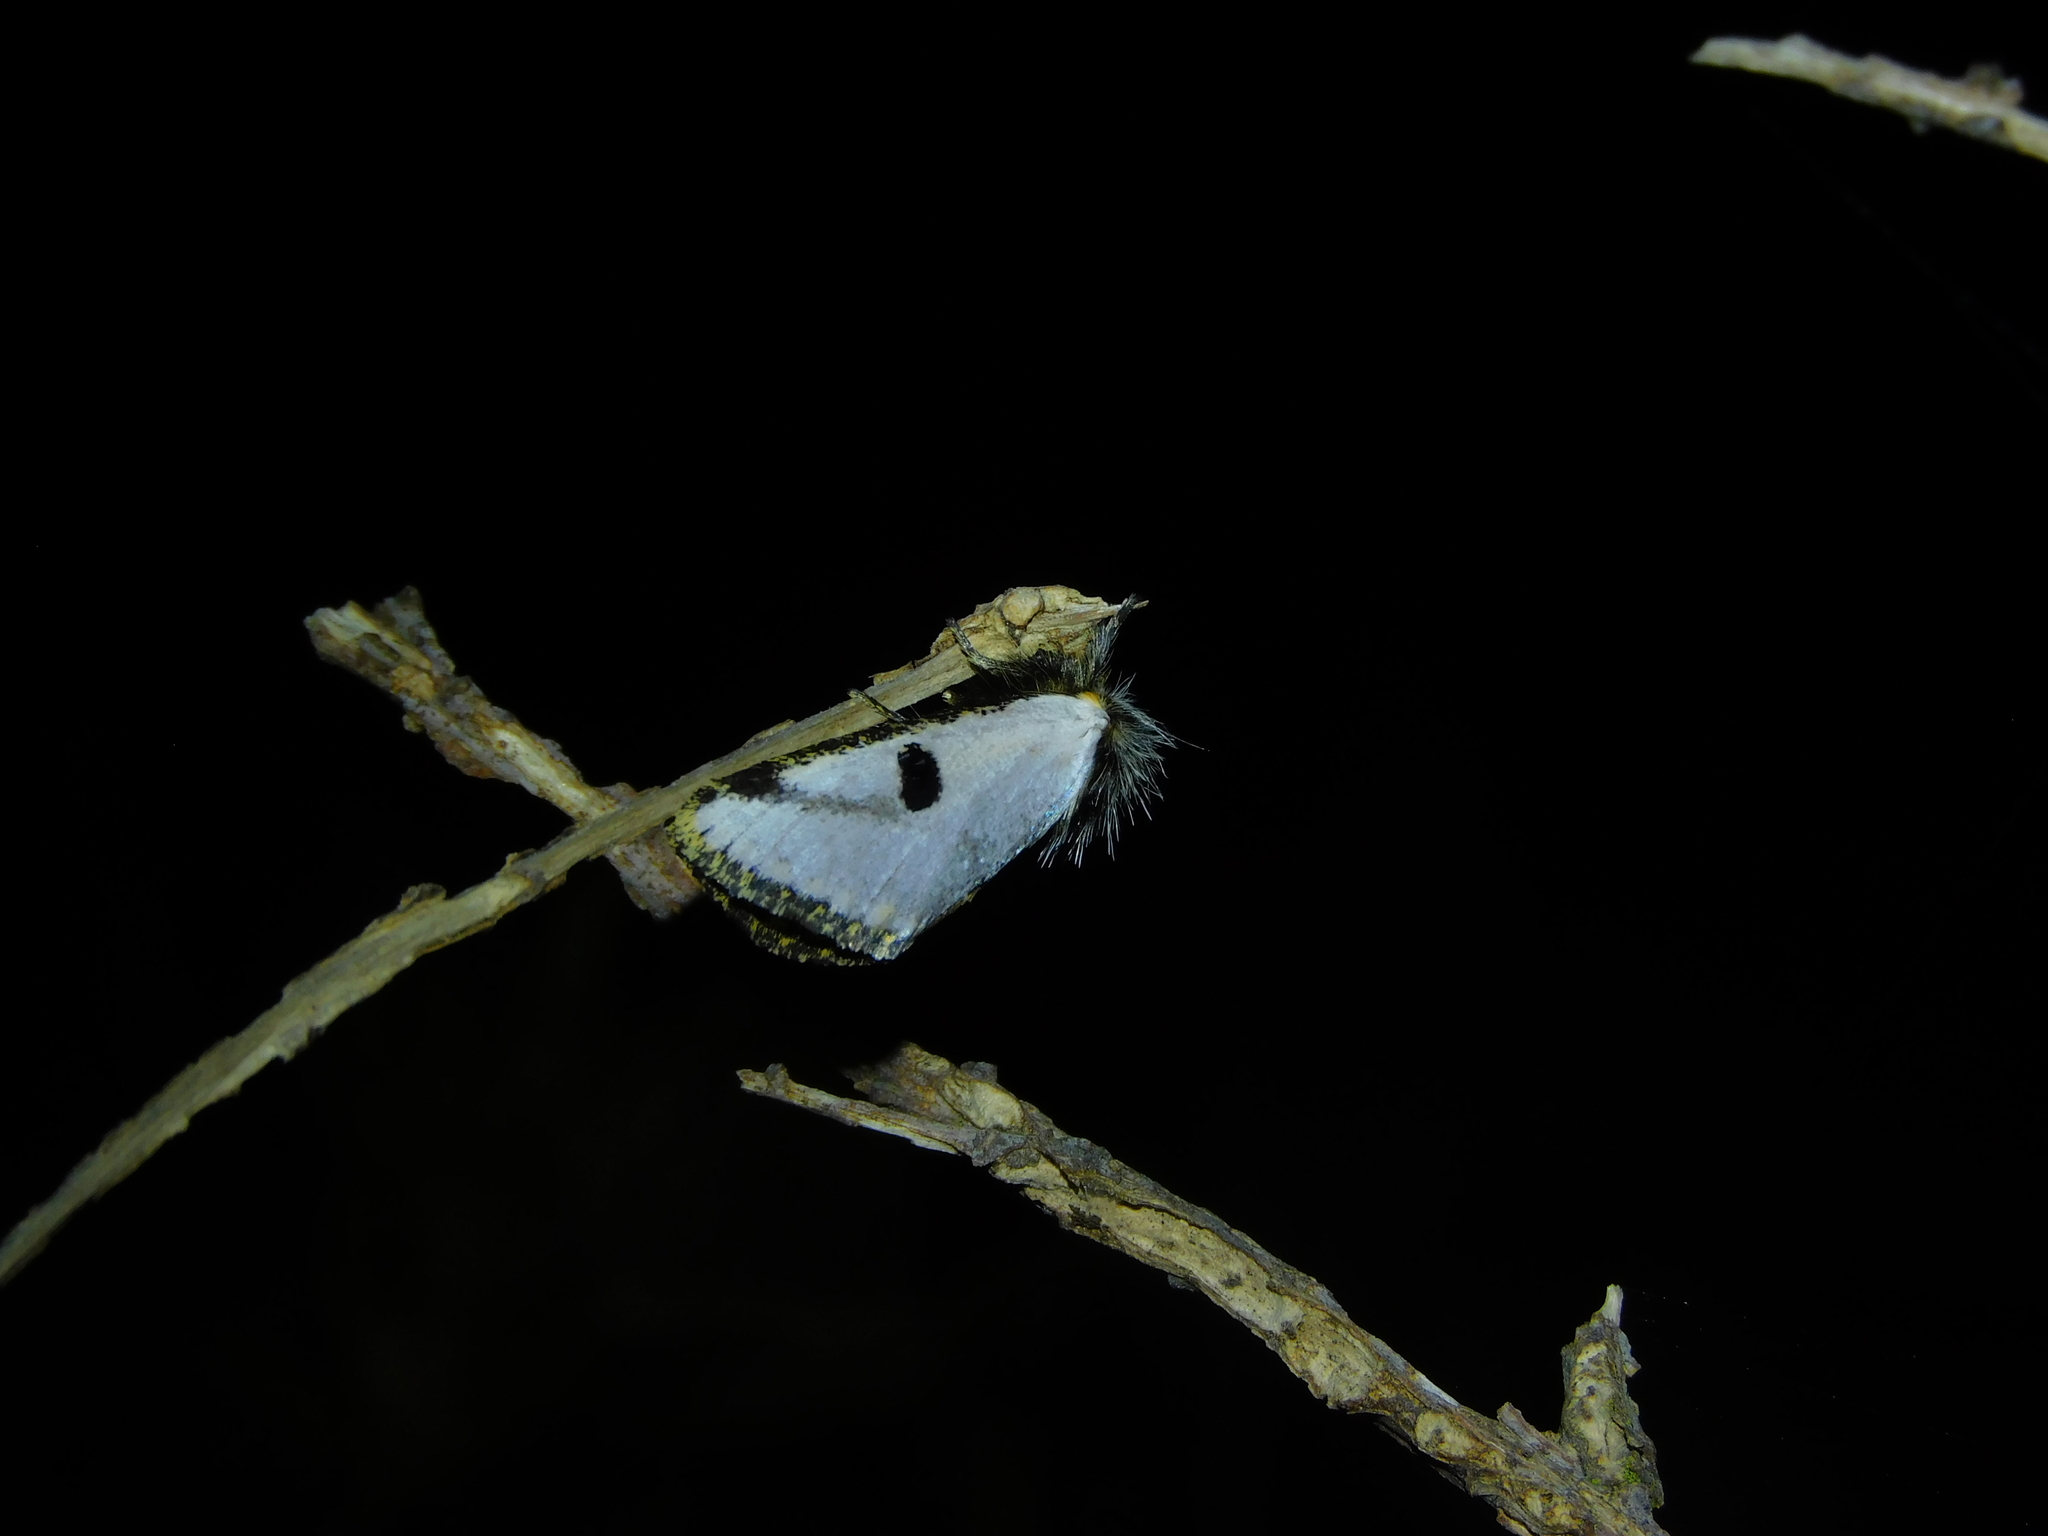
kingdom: Animalia
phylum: Arthropoda
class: Insecta
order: Lepidoptera
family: Notodontidae
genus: Epicoma
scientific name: Epicoma melanospila
